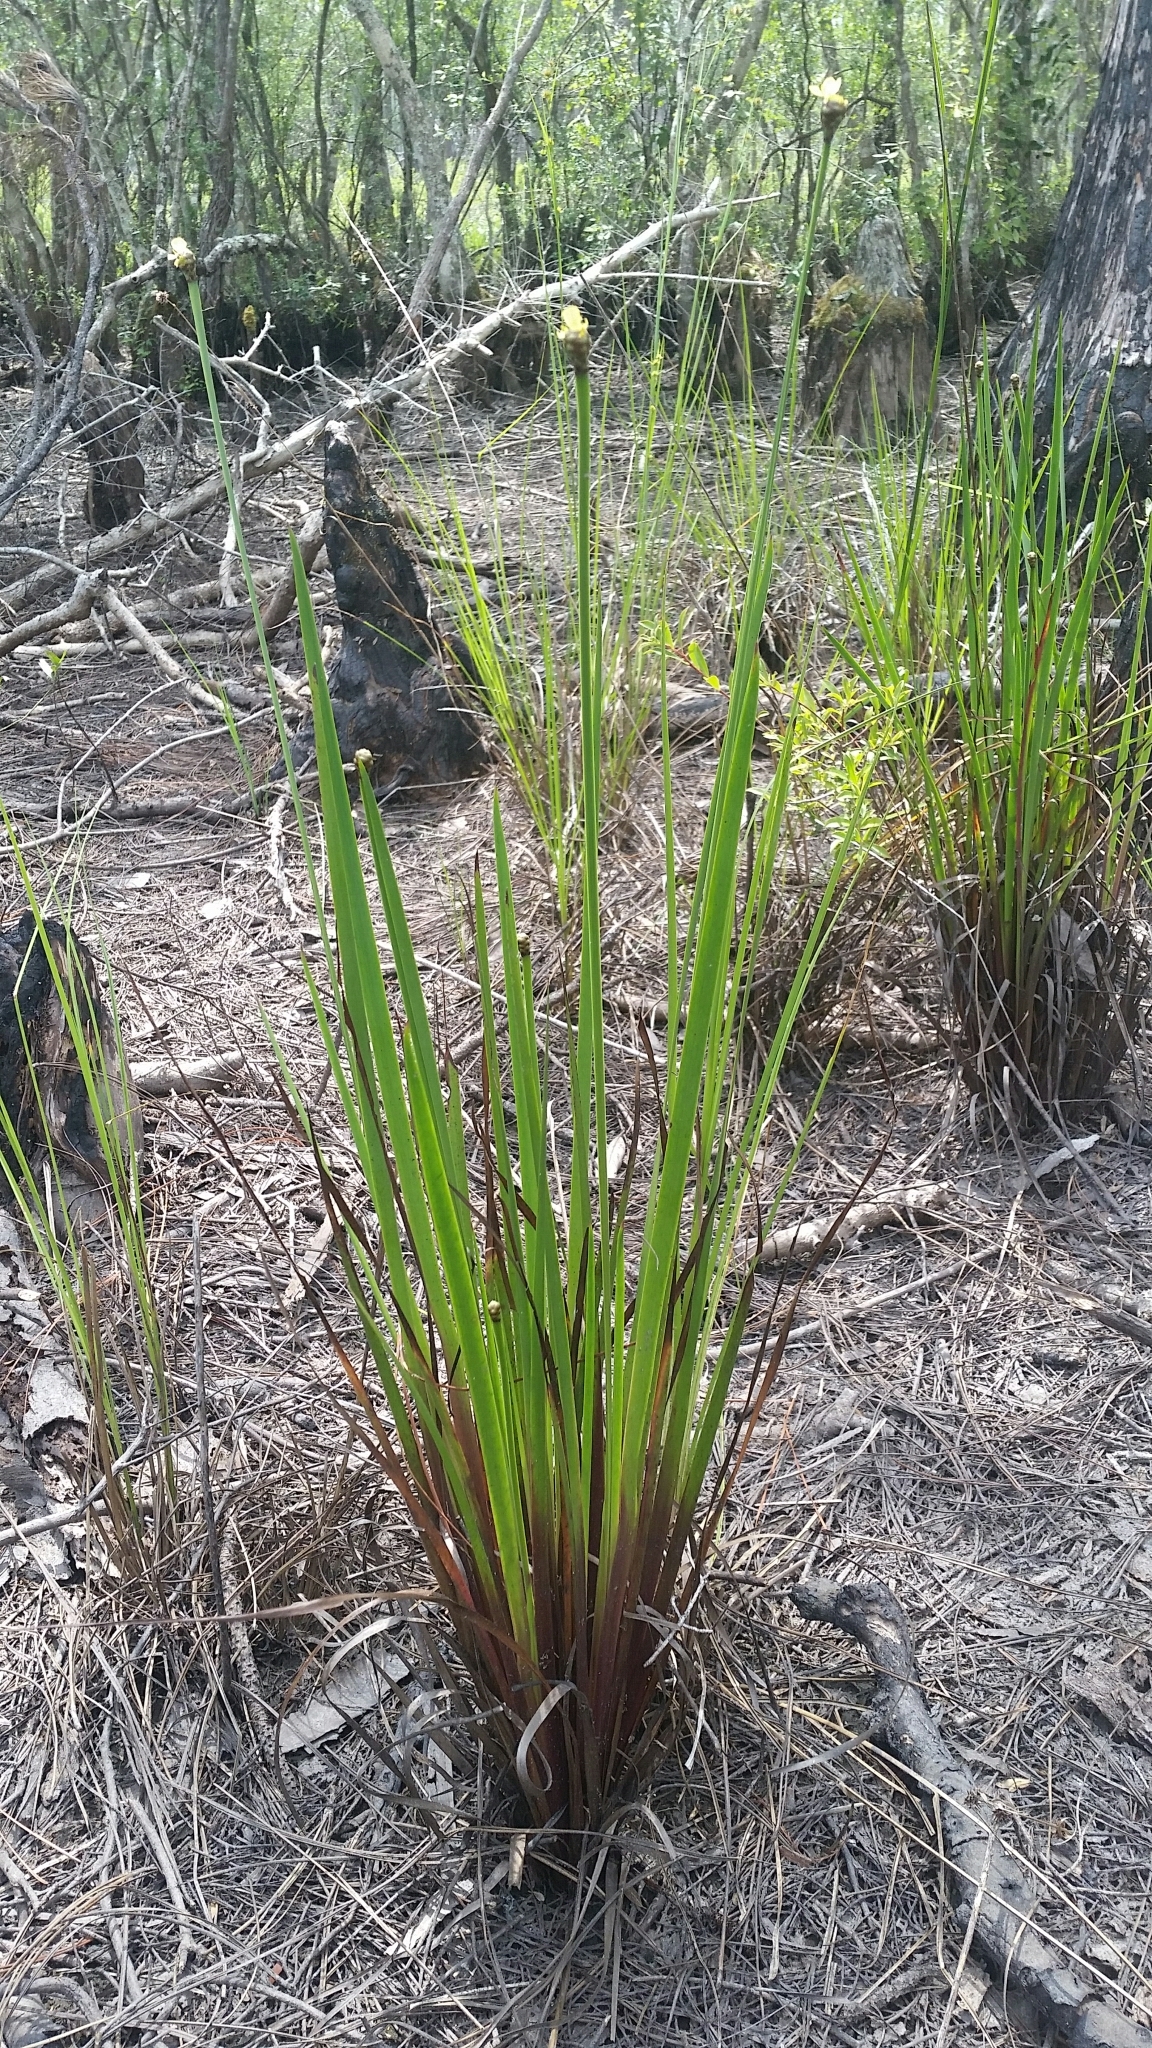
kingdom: Plantae
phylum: Tracheophyta
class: Liliopsida
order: Poales
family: Xyridaceae
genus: Xyris
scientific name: Xyris stricta
